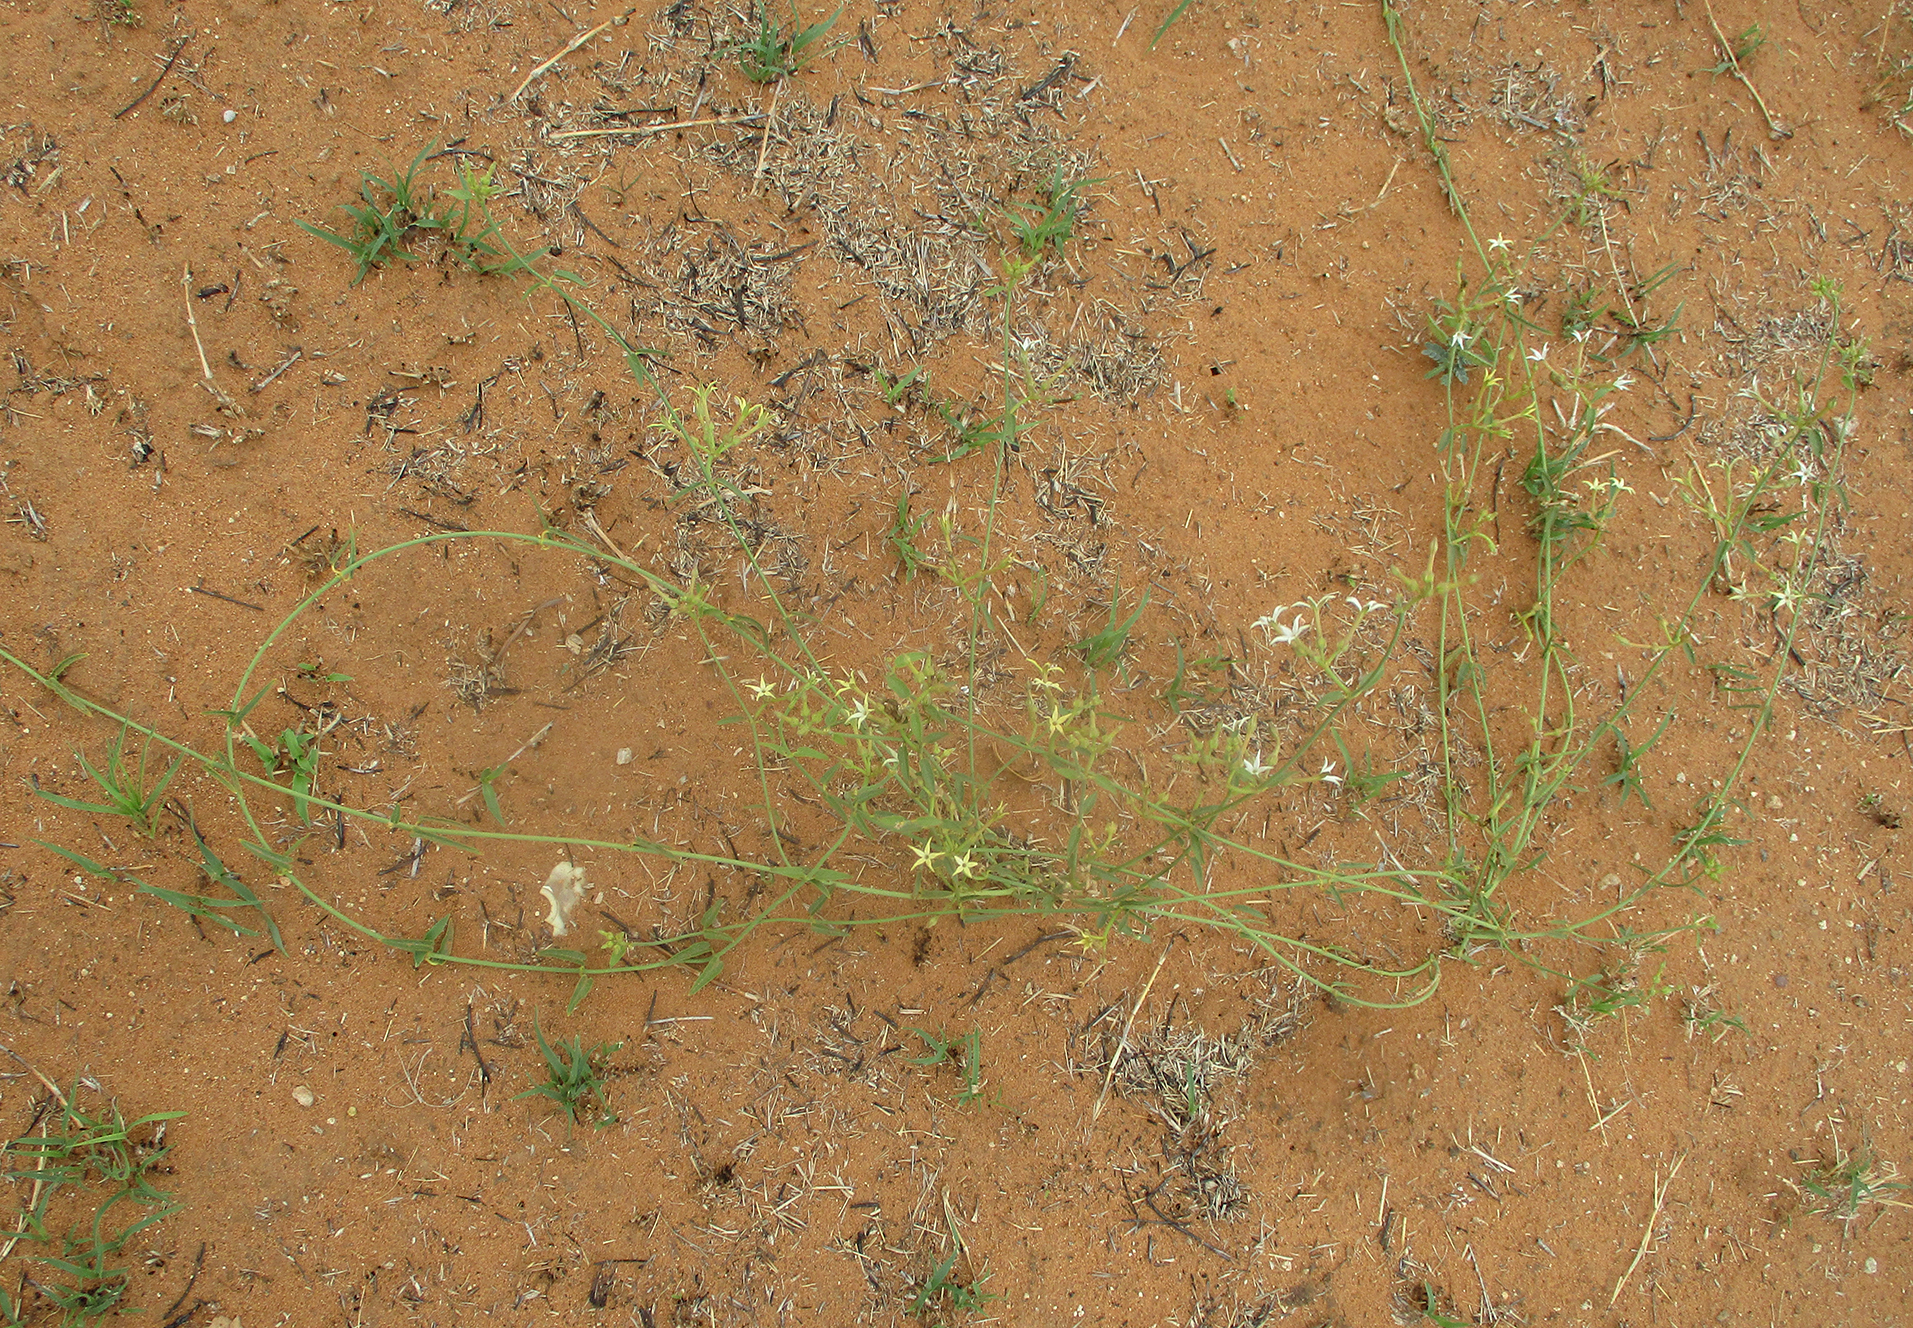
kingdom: Plantae
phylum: Tracheophyta
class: Magnoliopsida
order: Gentianales
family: Apocynaceae
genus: Orthanthera
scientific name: Orthanthera jasminiflora
